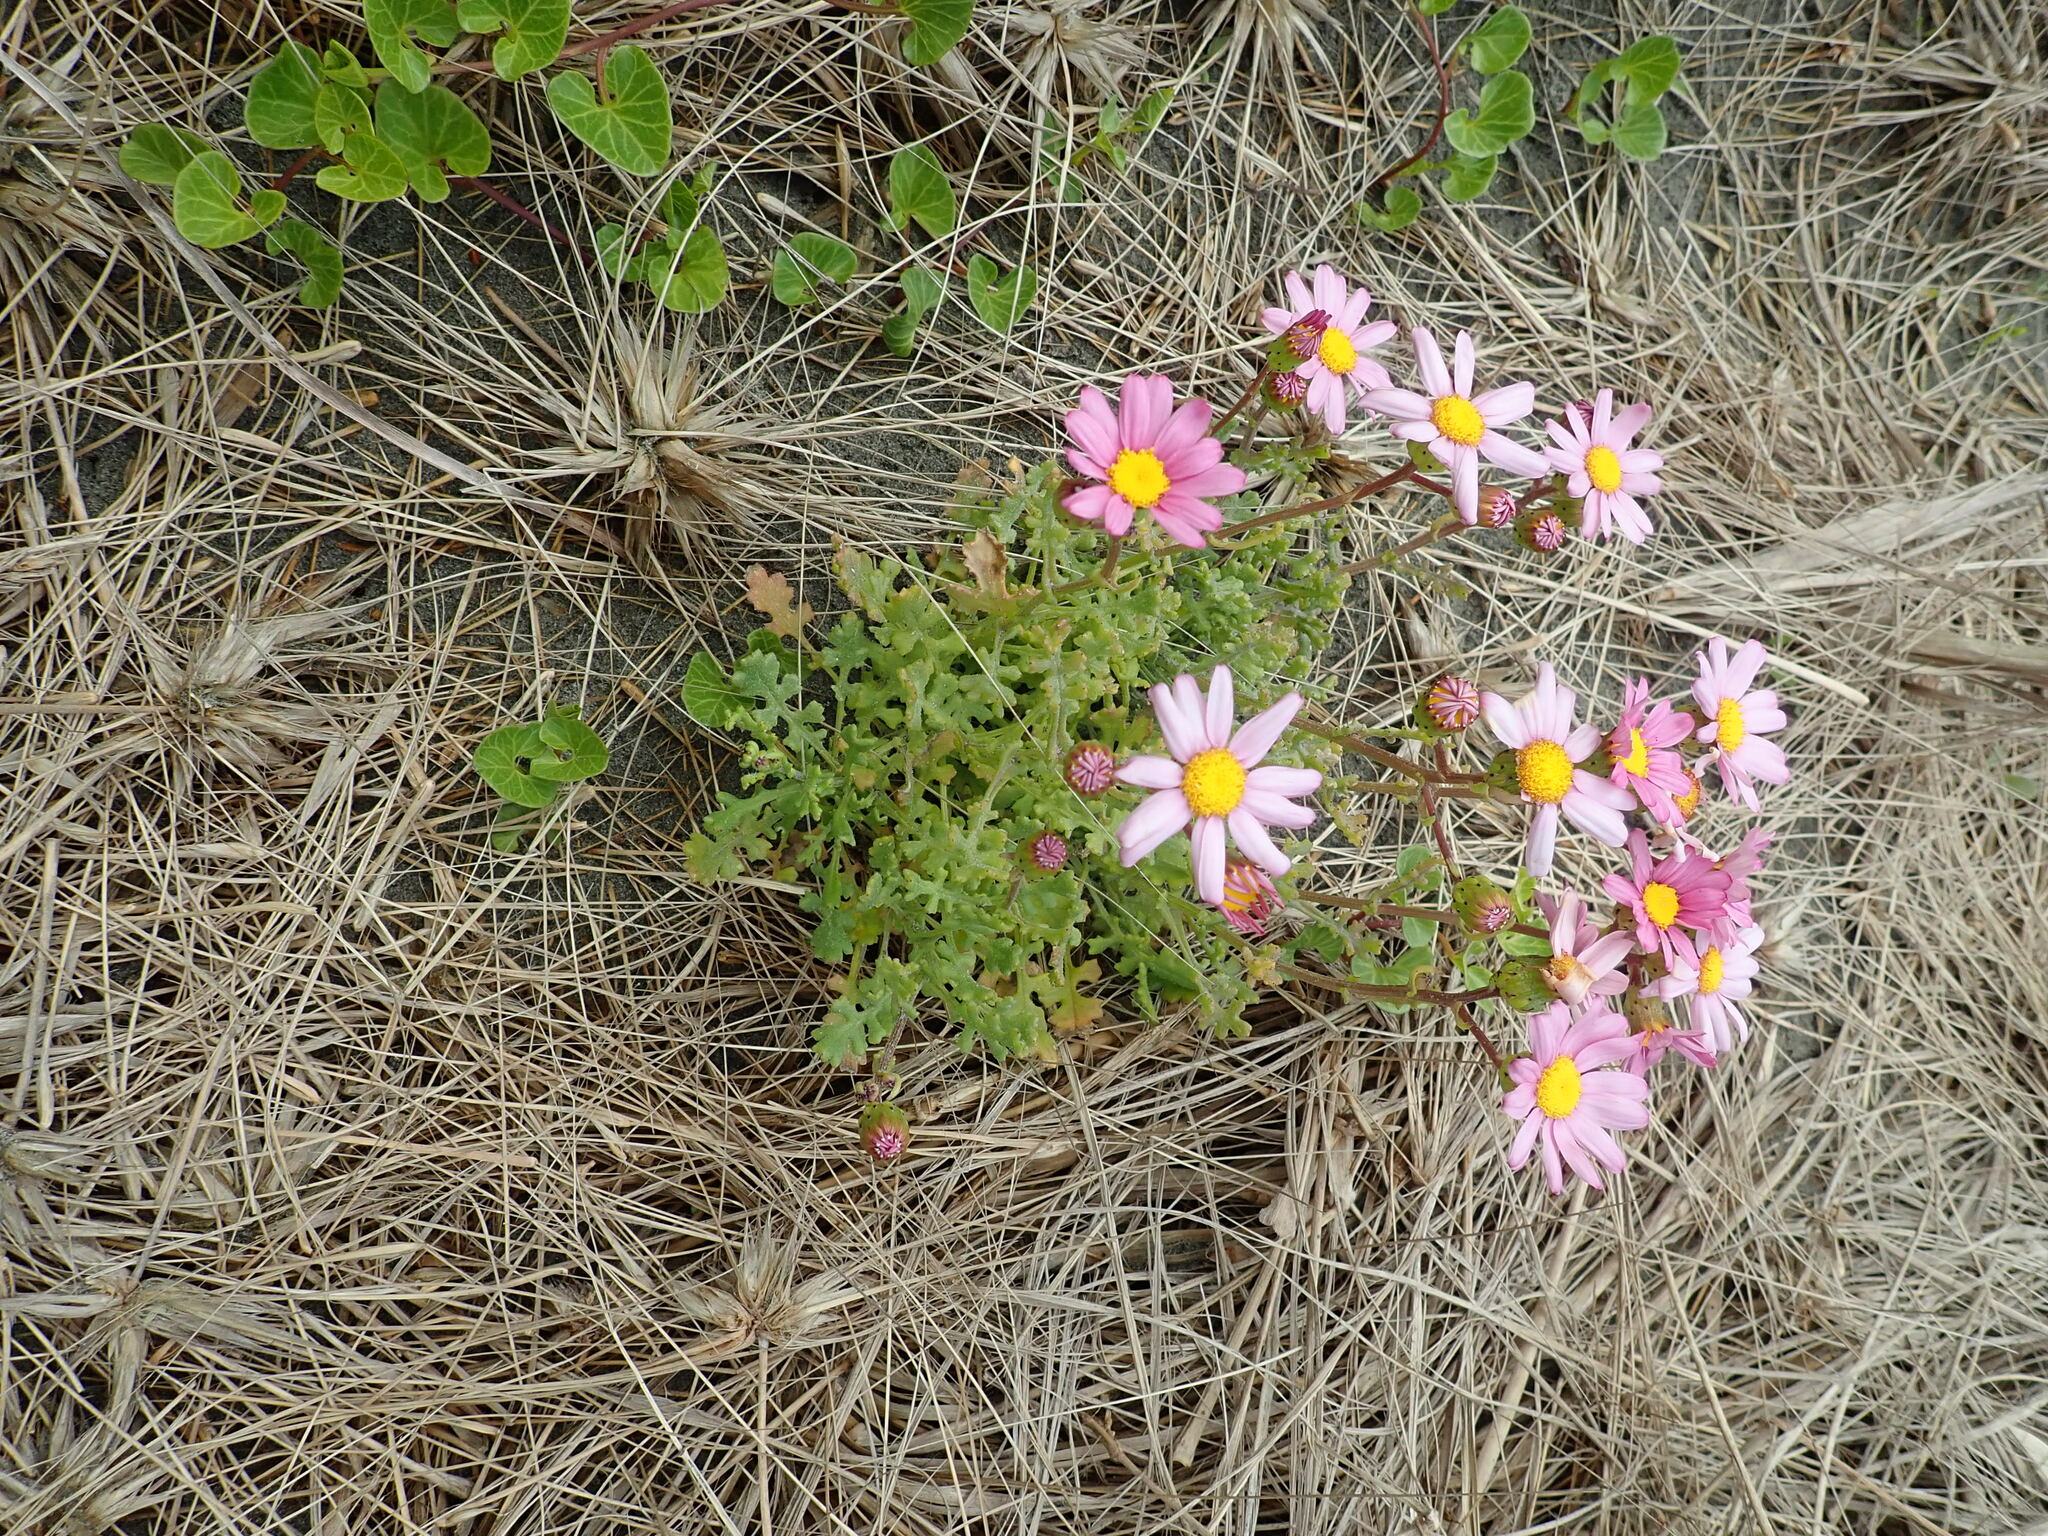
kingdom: Plantae
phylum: Tracheophyta
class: Magnoliopsida
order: Asterales
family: Asteraceae
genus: Senecio
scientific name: Senecio elegans
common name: Purple groundsel
